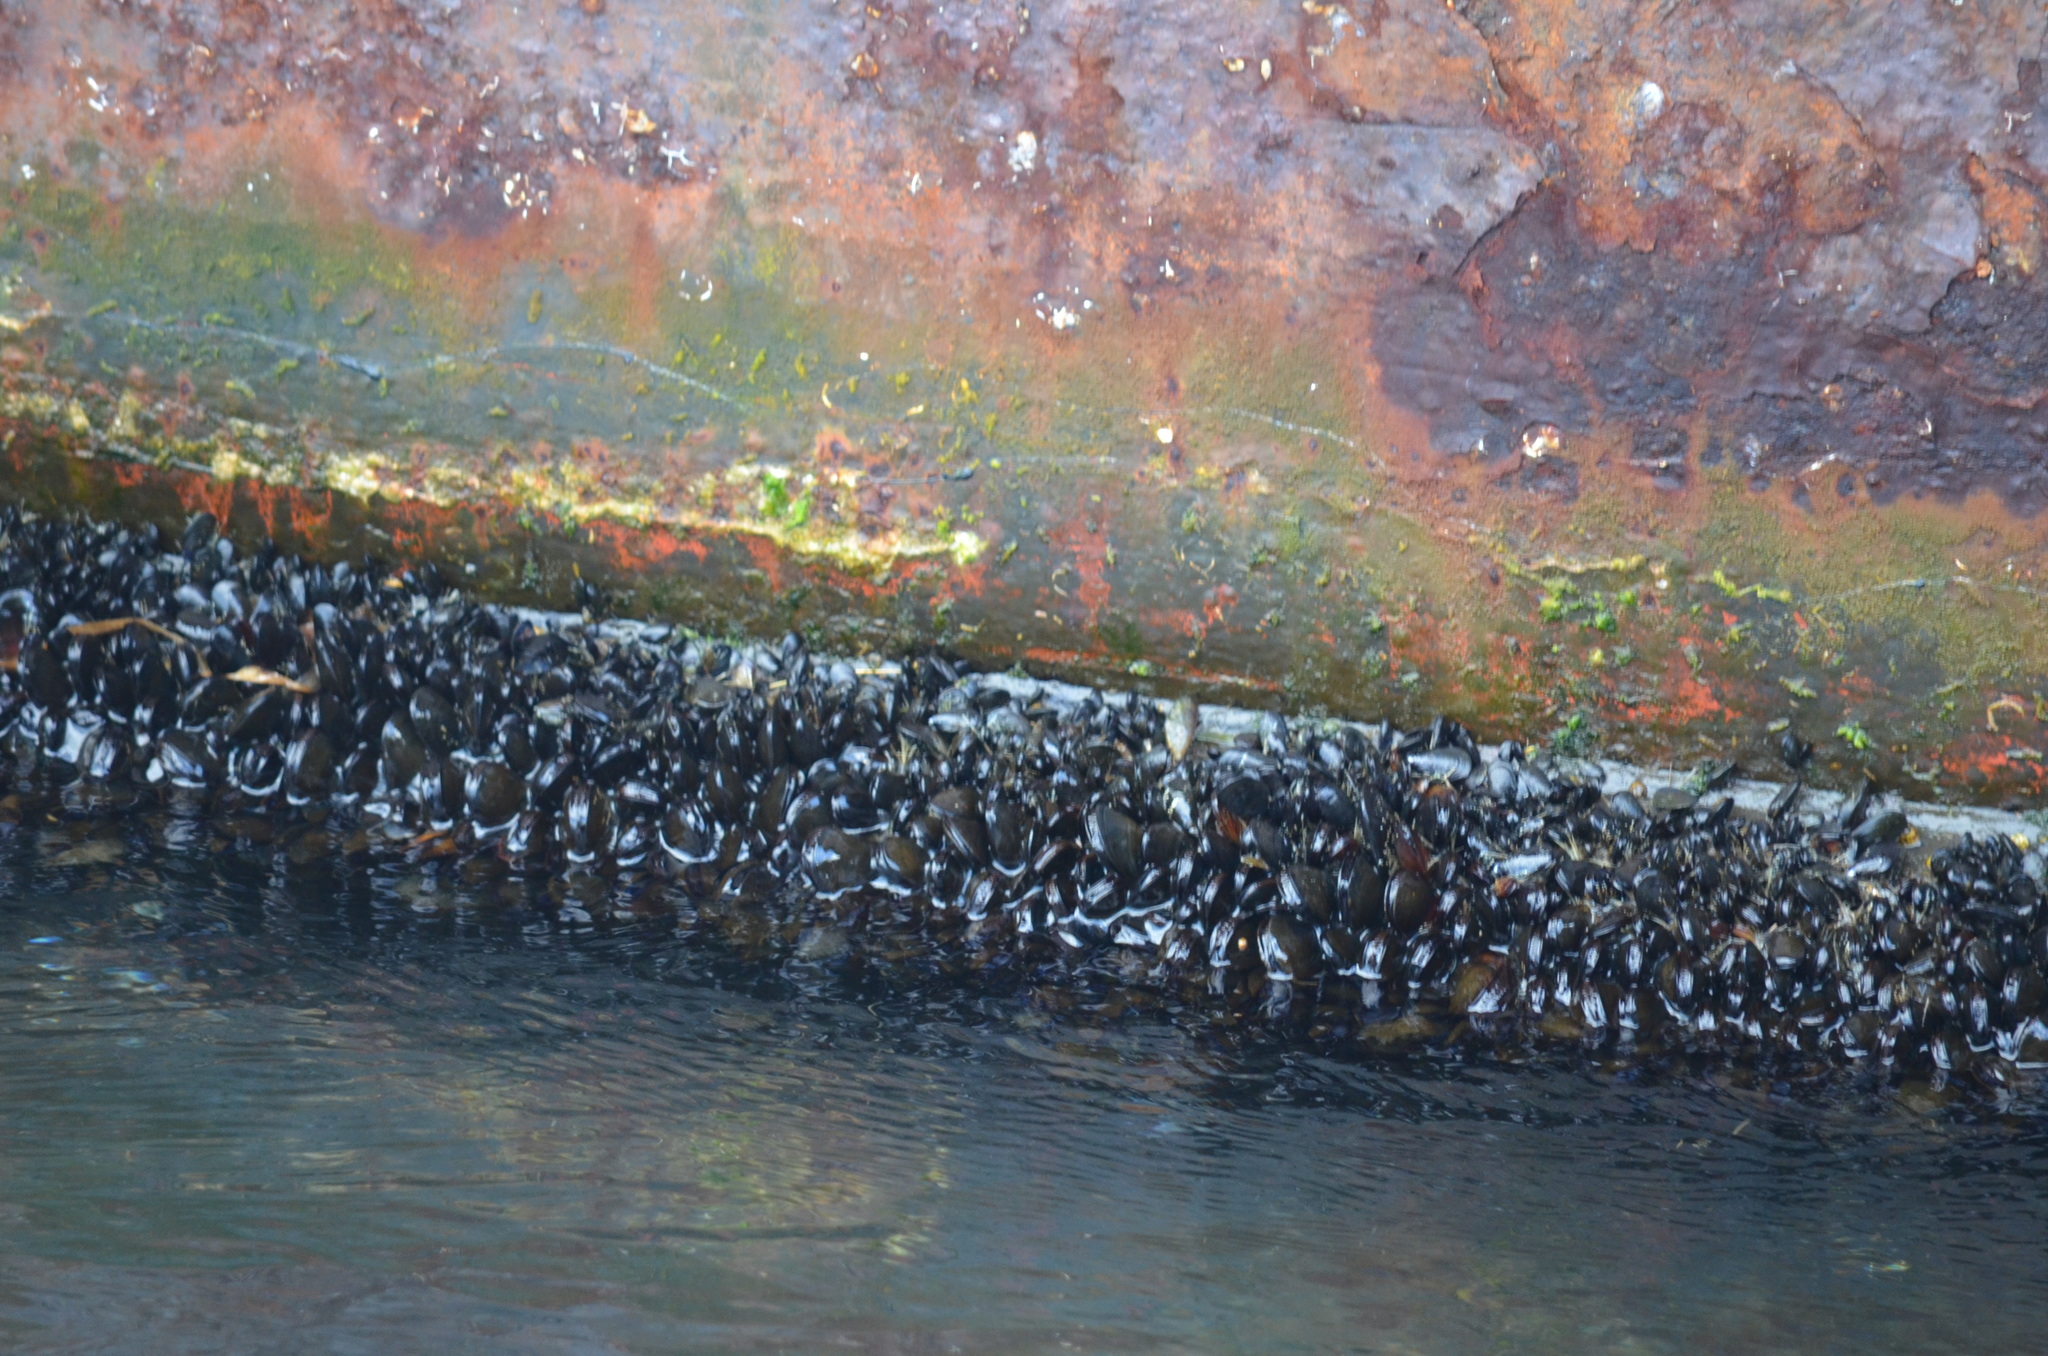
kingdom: Animalia
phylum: Mollusca
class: Bivalvia
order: Mytilida
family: Mytilidae
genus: Mytilus
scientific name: Mytilus
